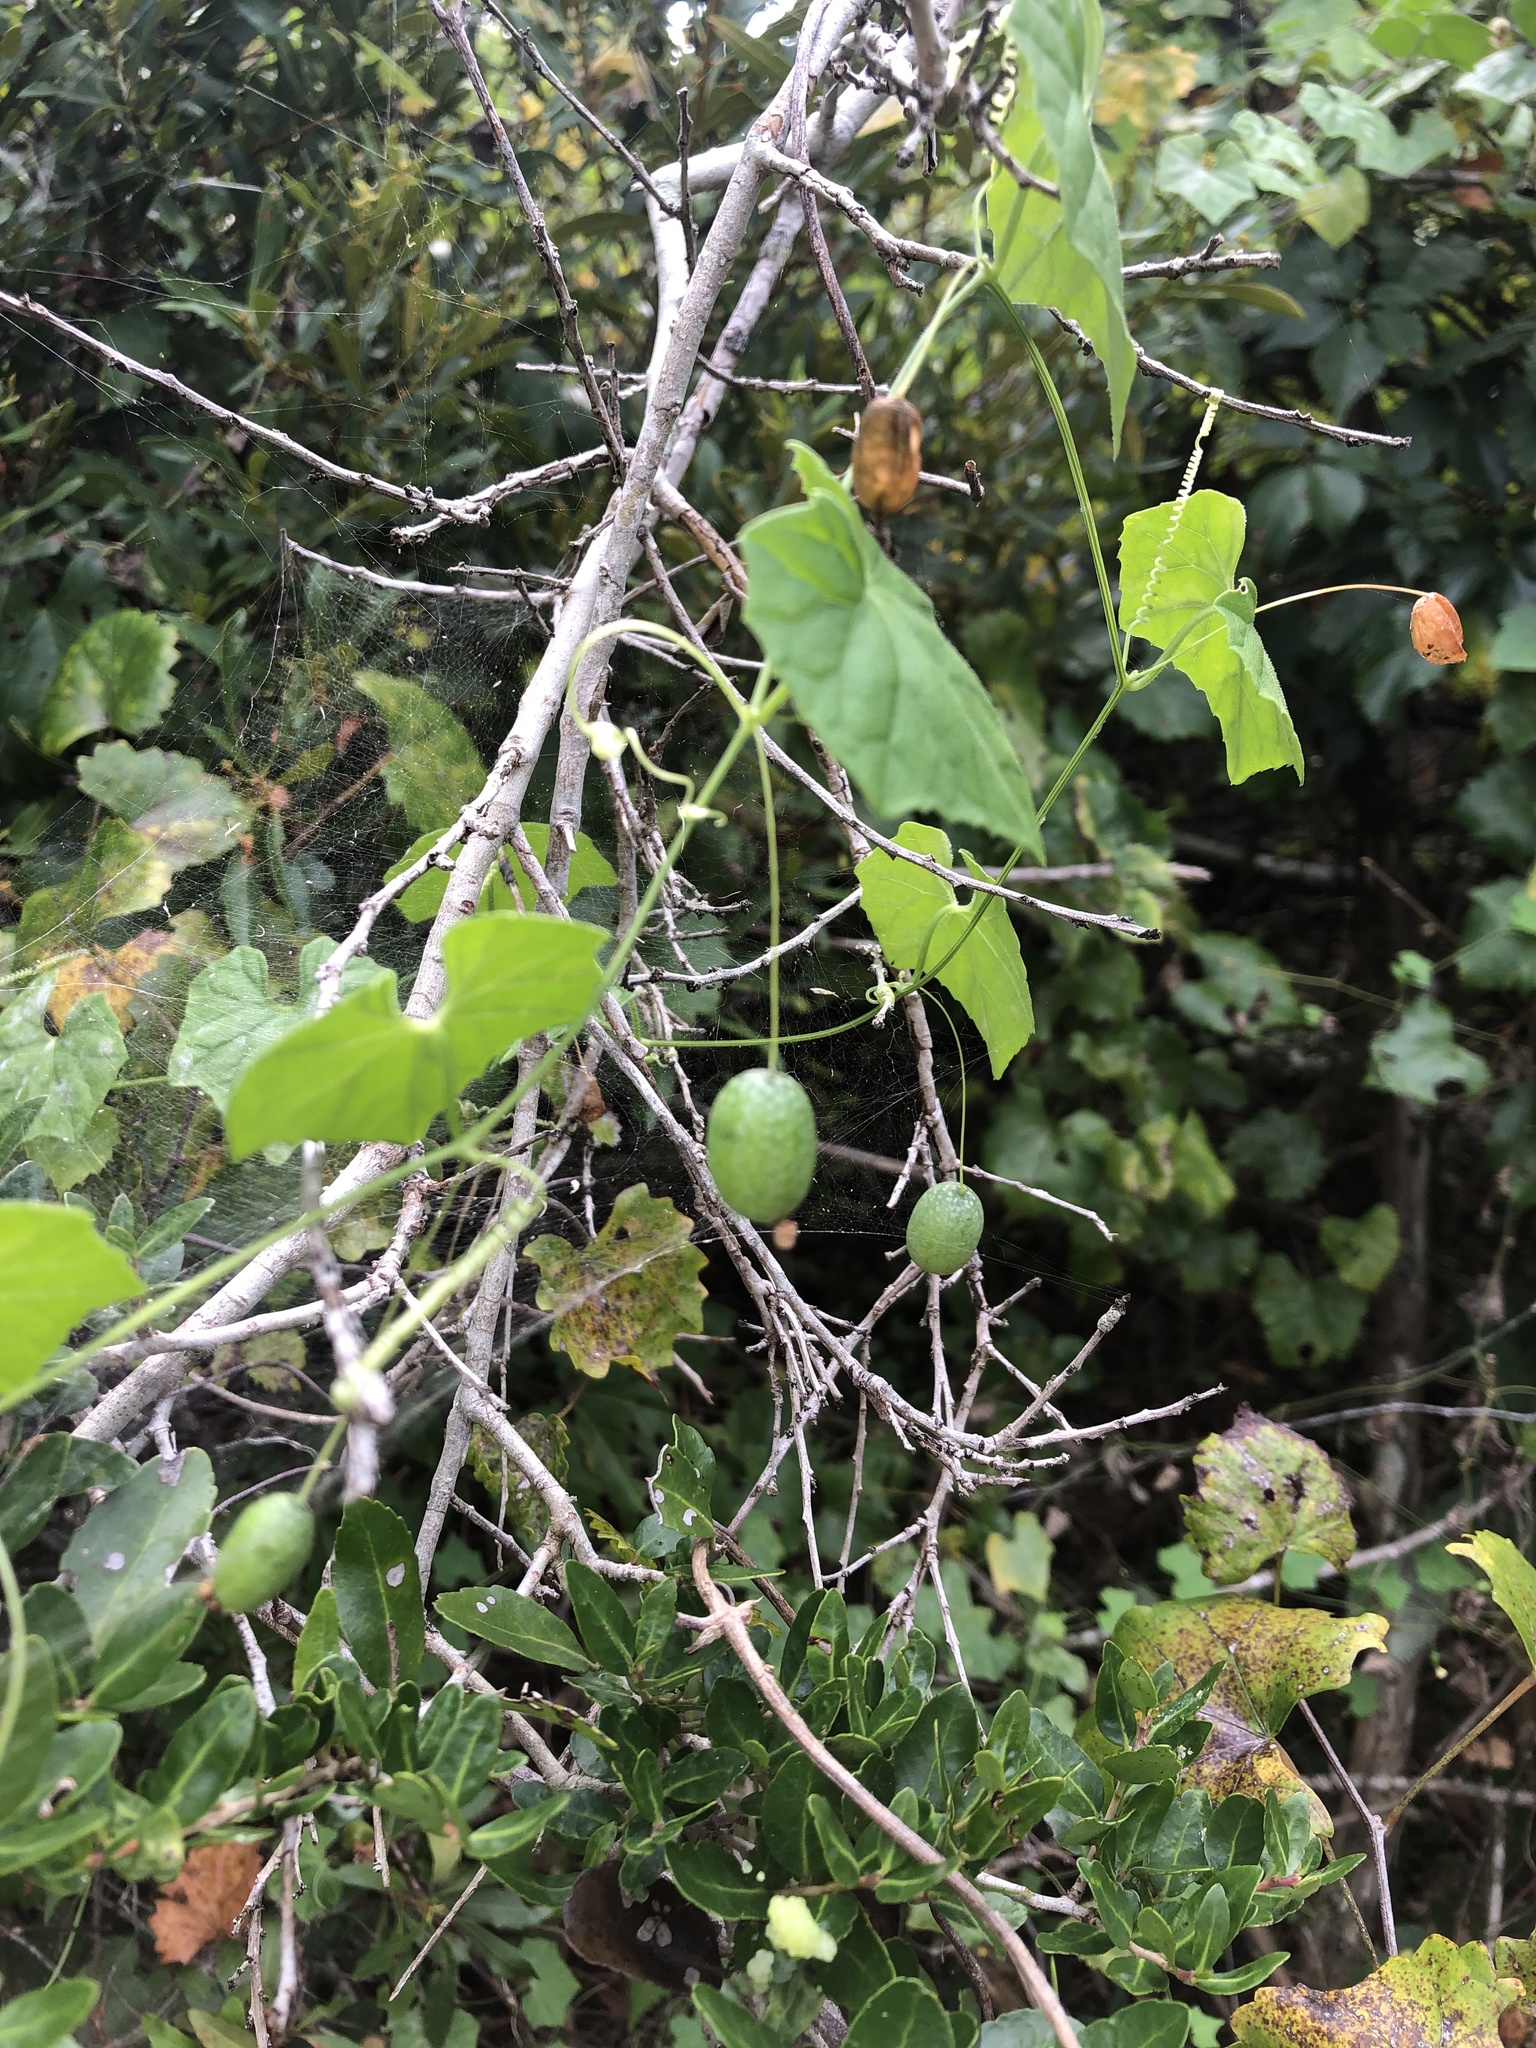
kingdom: Plantae
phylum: Tracheophyta
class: Magnoliopsida
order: Cucurbitales
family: Cucurbitaceae
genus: Melothria
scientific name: Melothria pendula
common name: Creeping-cucumber
